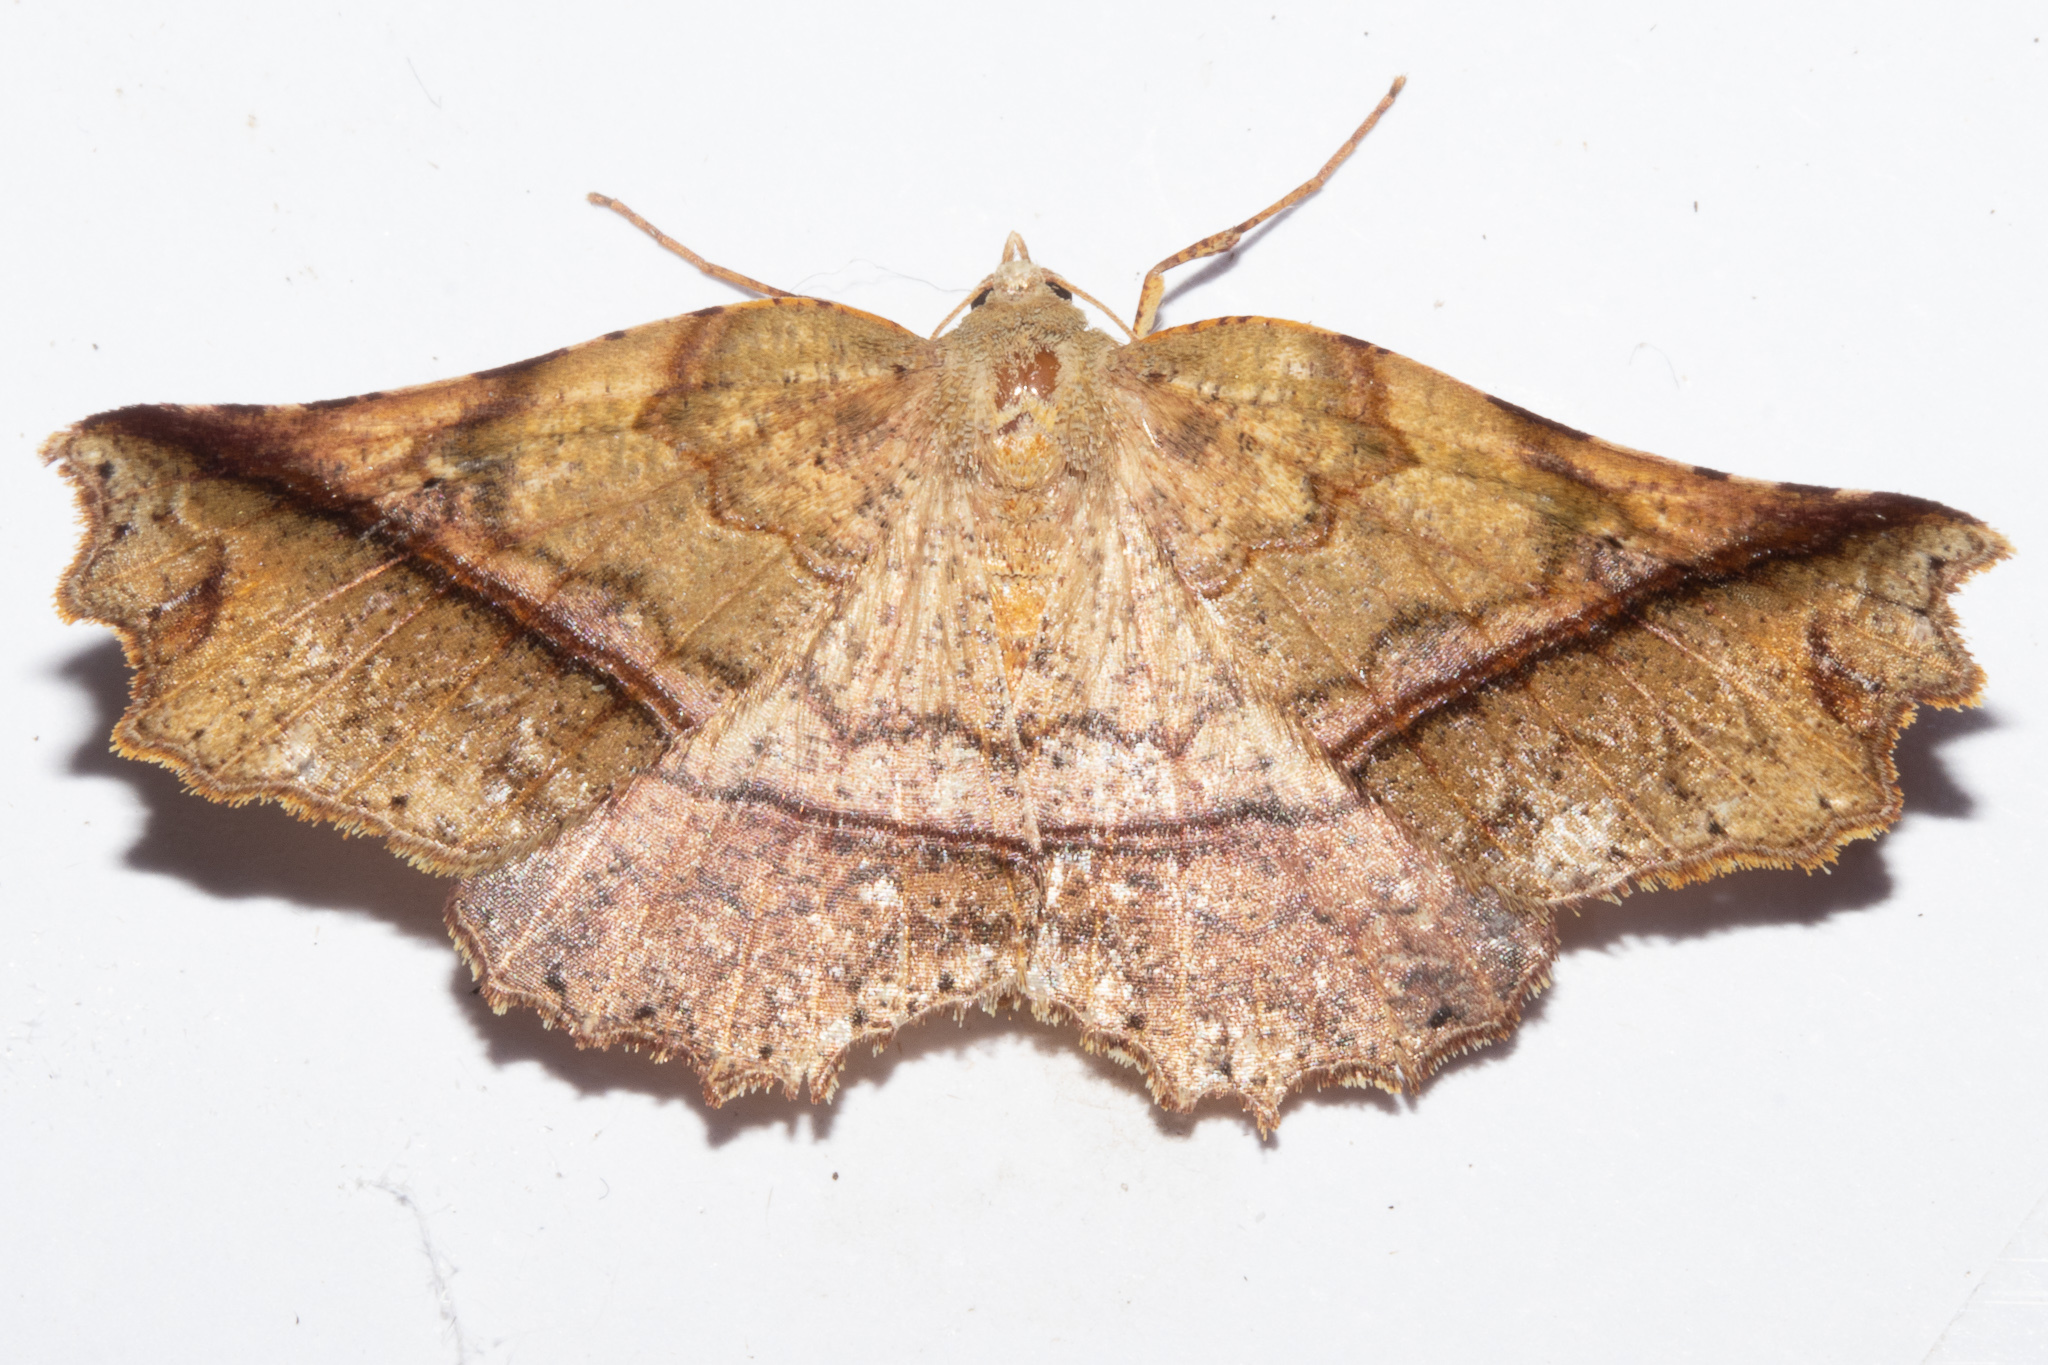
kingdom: Animalia
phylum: Arthropoda
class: Insecta
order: Lepidoptera
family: Geometridae
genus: Ischalis
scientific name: Ischalis gallaria
